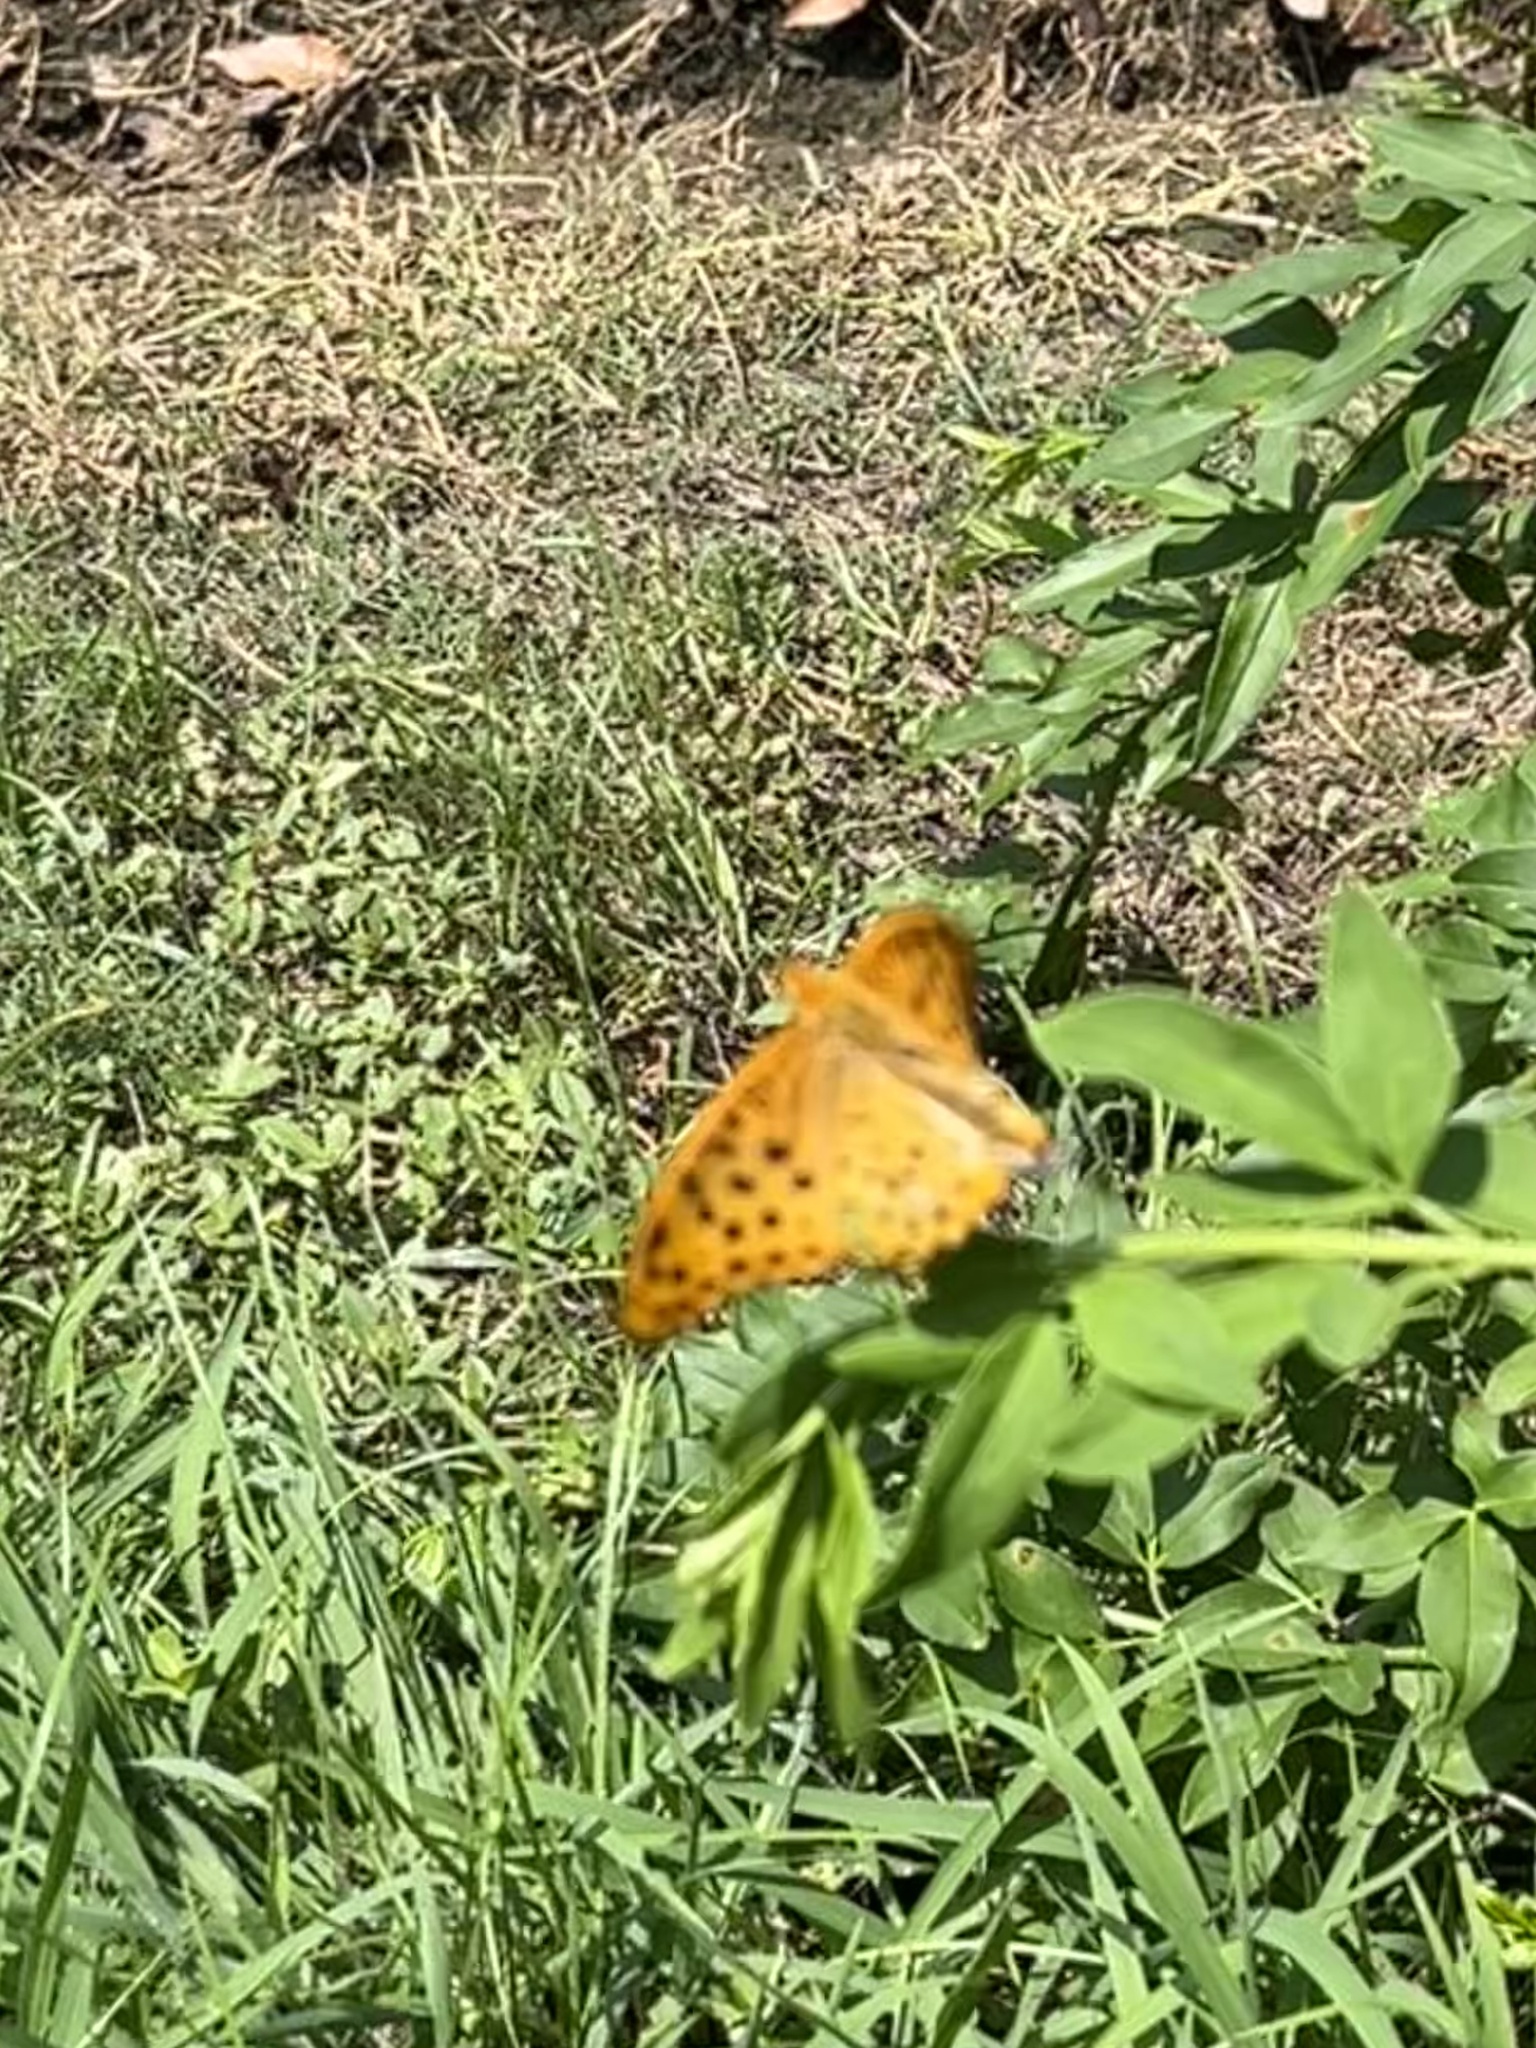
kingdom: Animalia
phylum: Arthropoda
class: Insecta
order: Lepidoptera
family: Nymphalidae
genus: Argynnis
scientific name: Argynnis hyperbius
